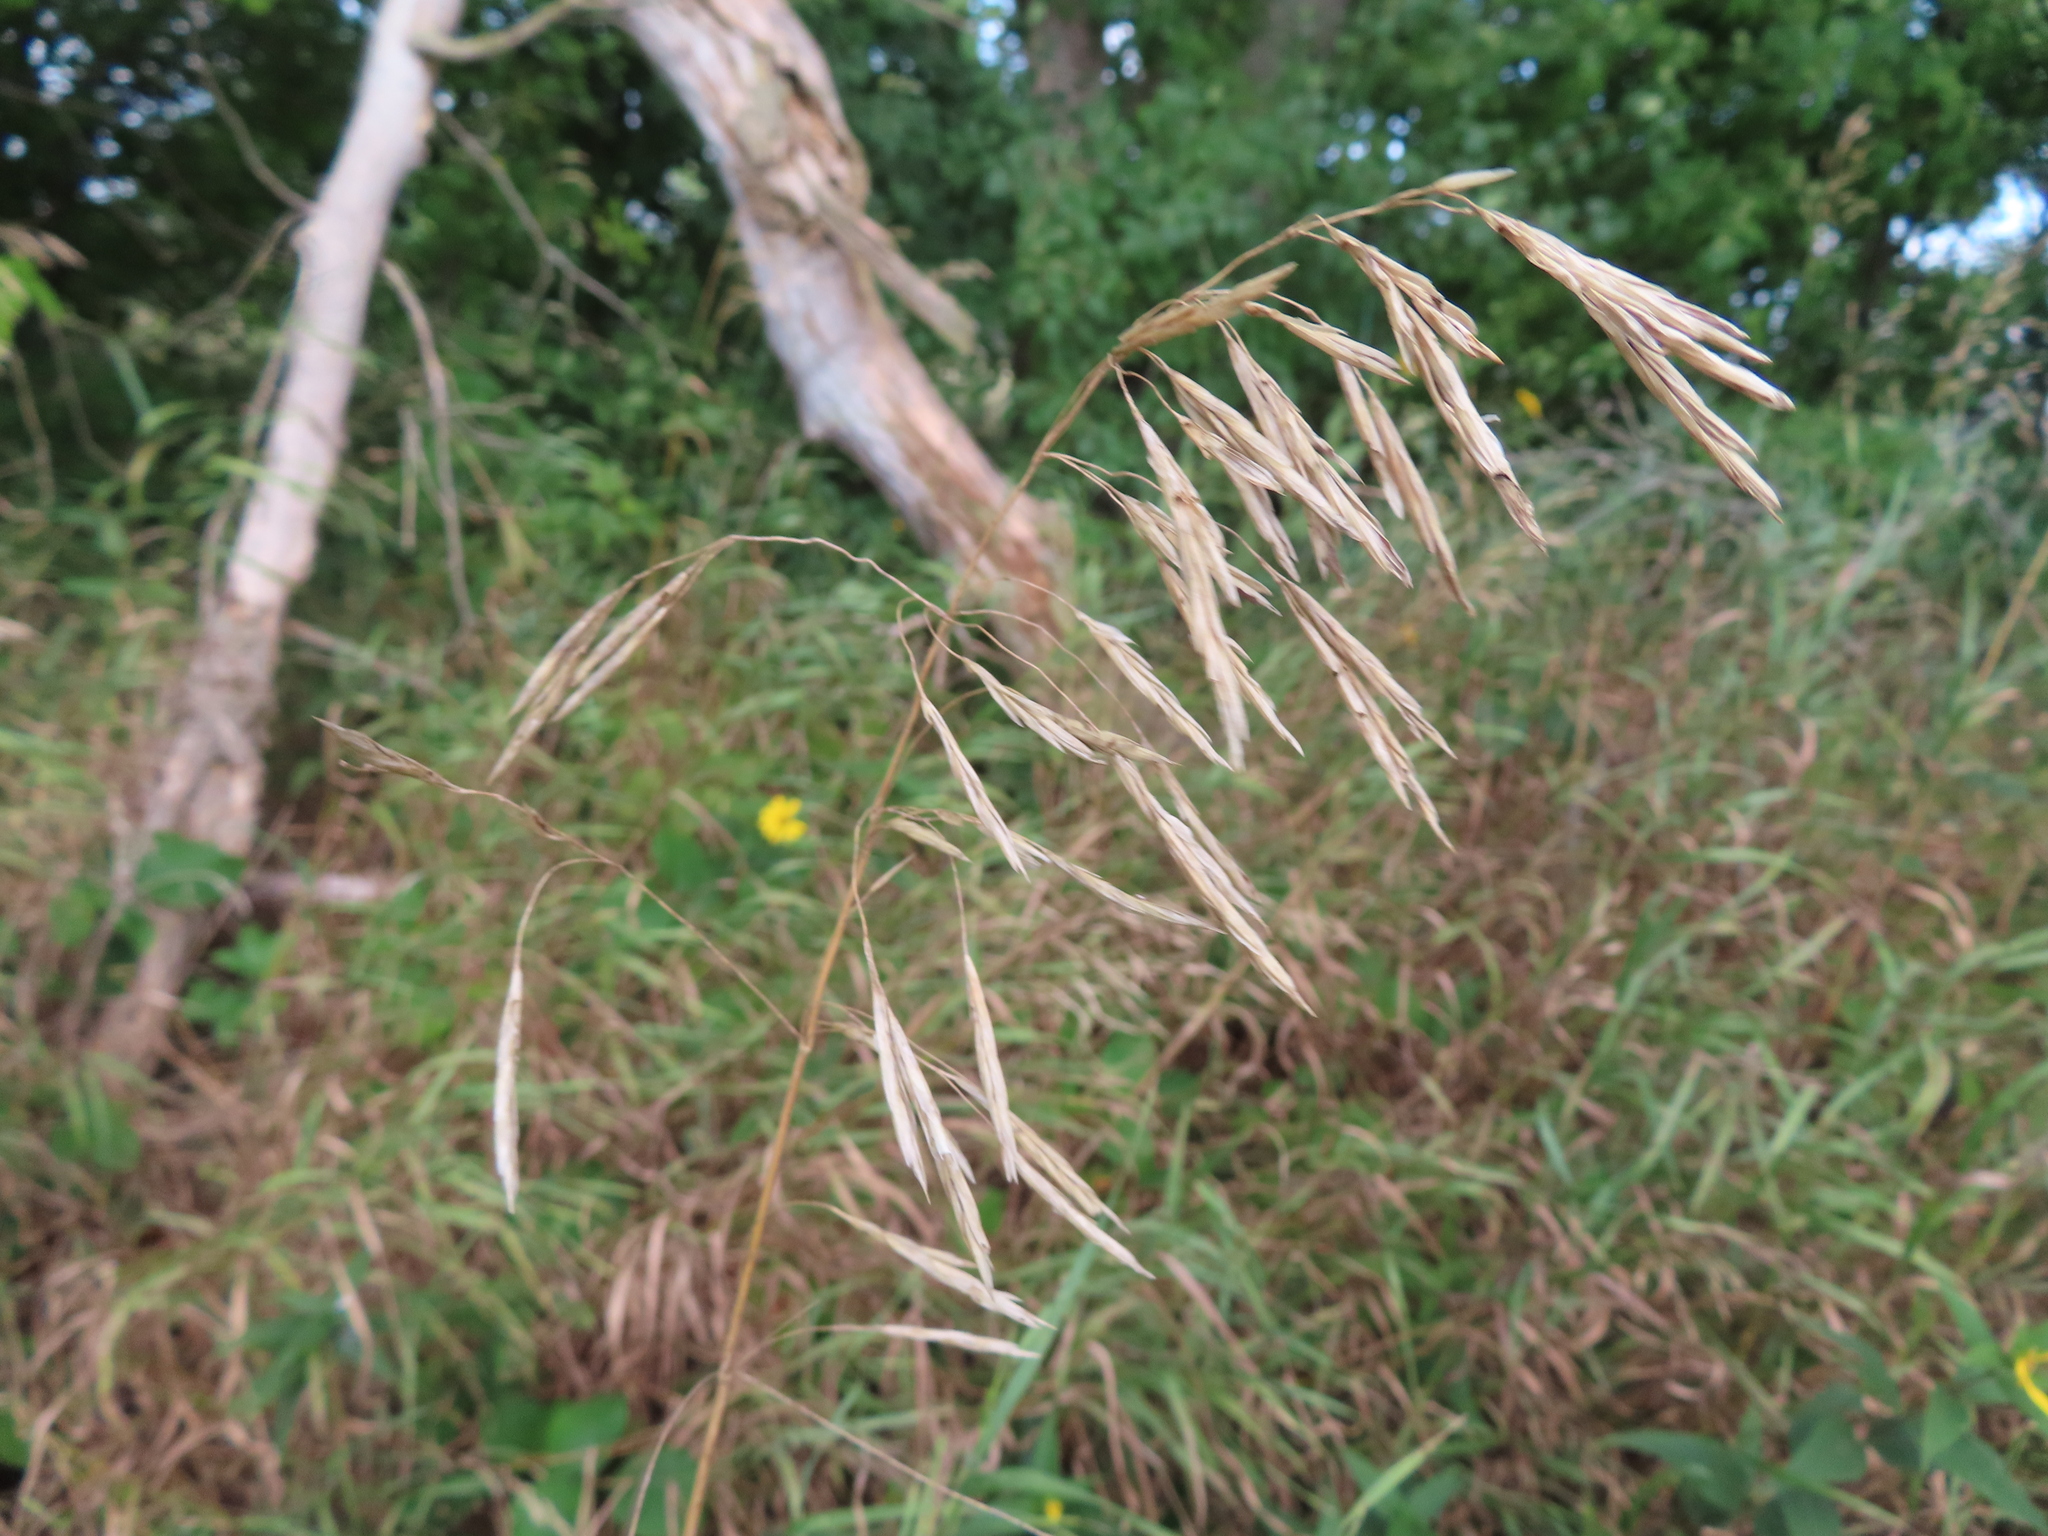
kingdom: Plantae
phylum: Tracheophyta
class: Liliopsida
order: Poales
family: Poaceae
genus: Bromus
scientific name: Bromus inermis
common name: Smooth brome
